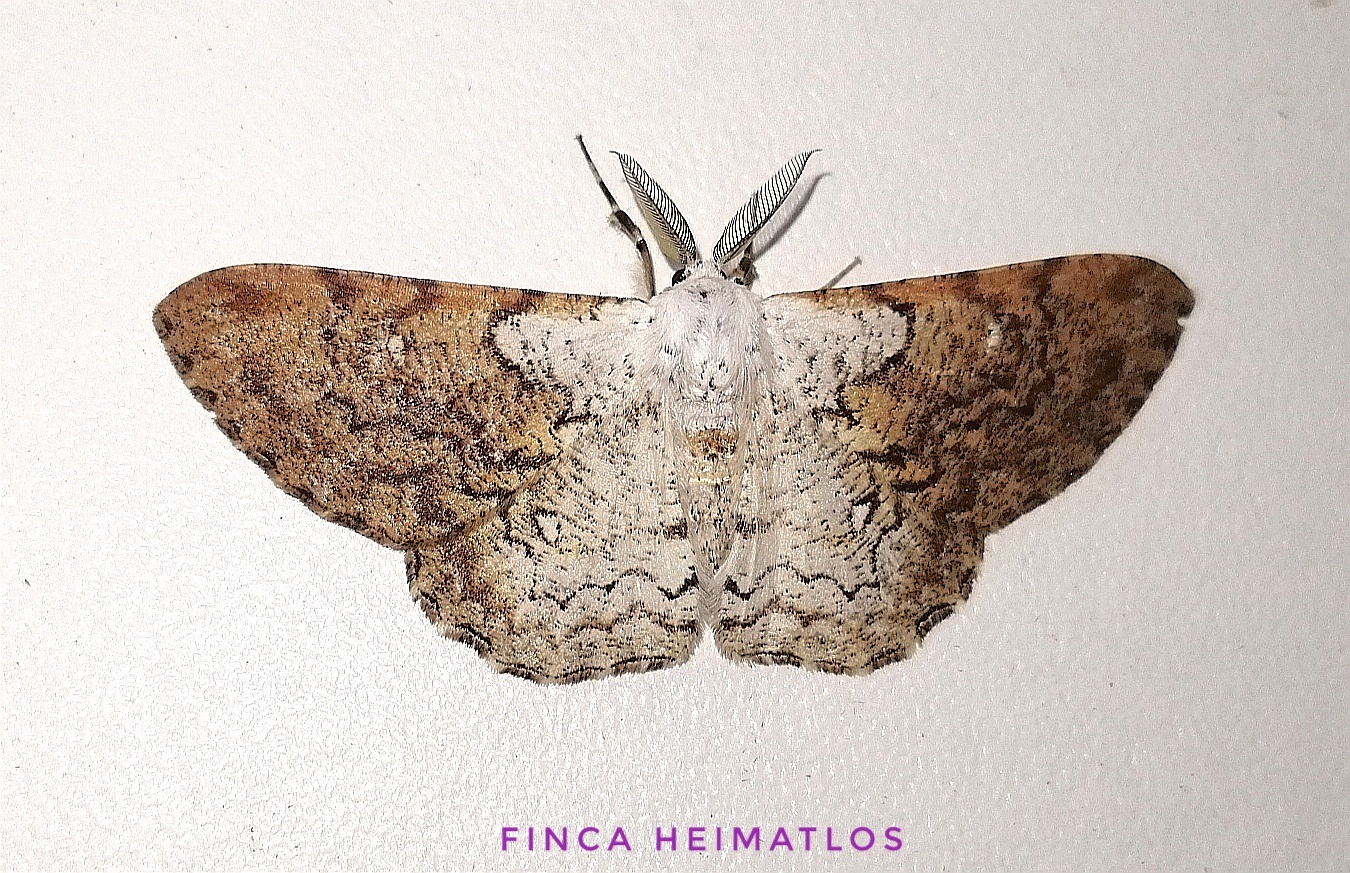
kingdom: Animalia
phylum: Arthropoda
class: Insecta
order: Lepidoptera
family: Geometridae
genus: Thyrinteina
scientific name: Thyrinteina arnobia
